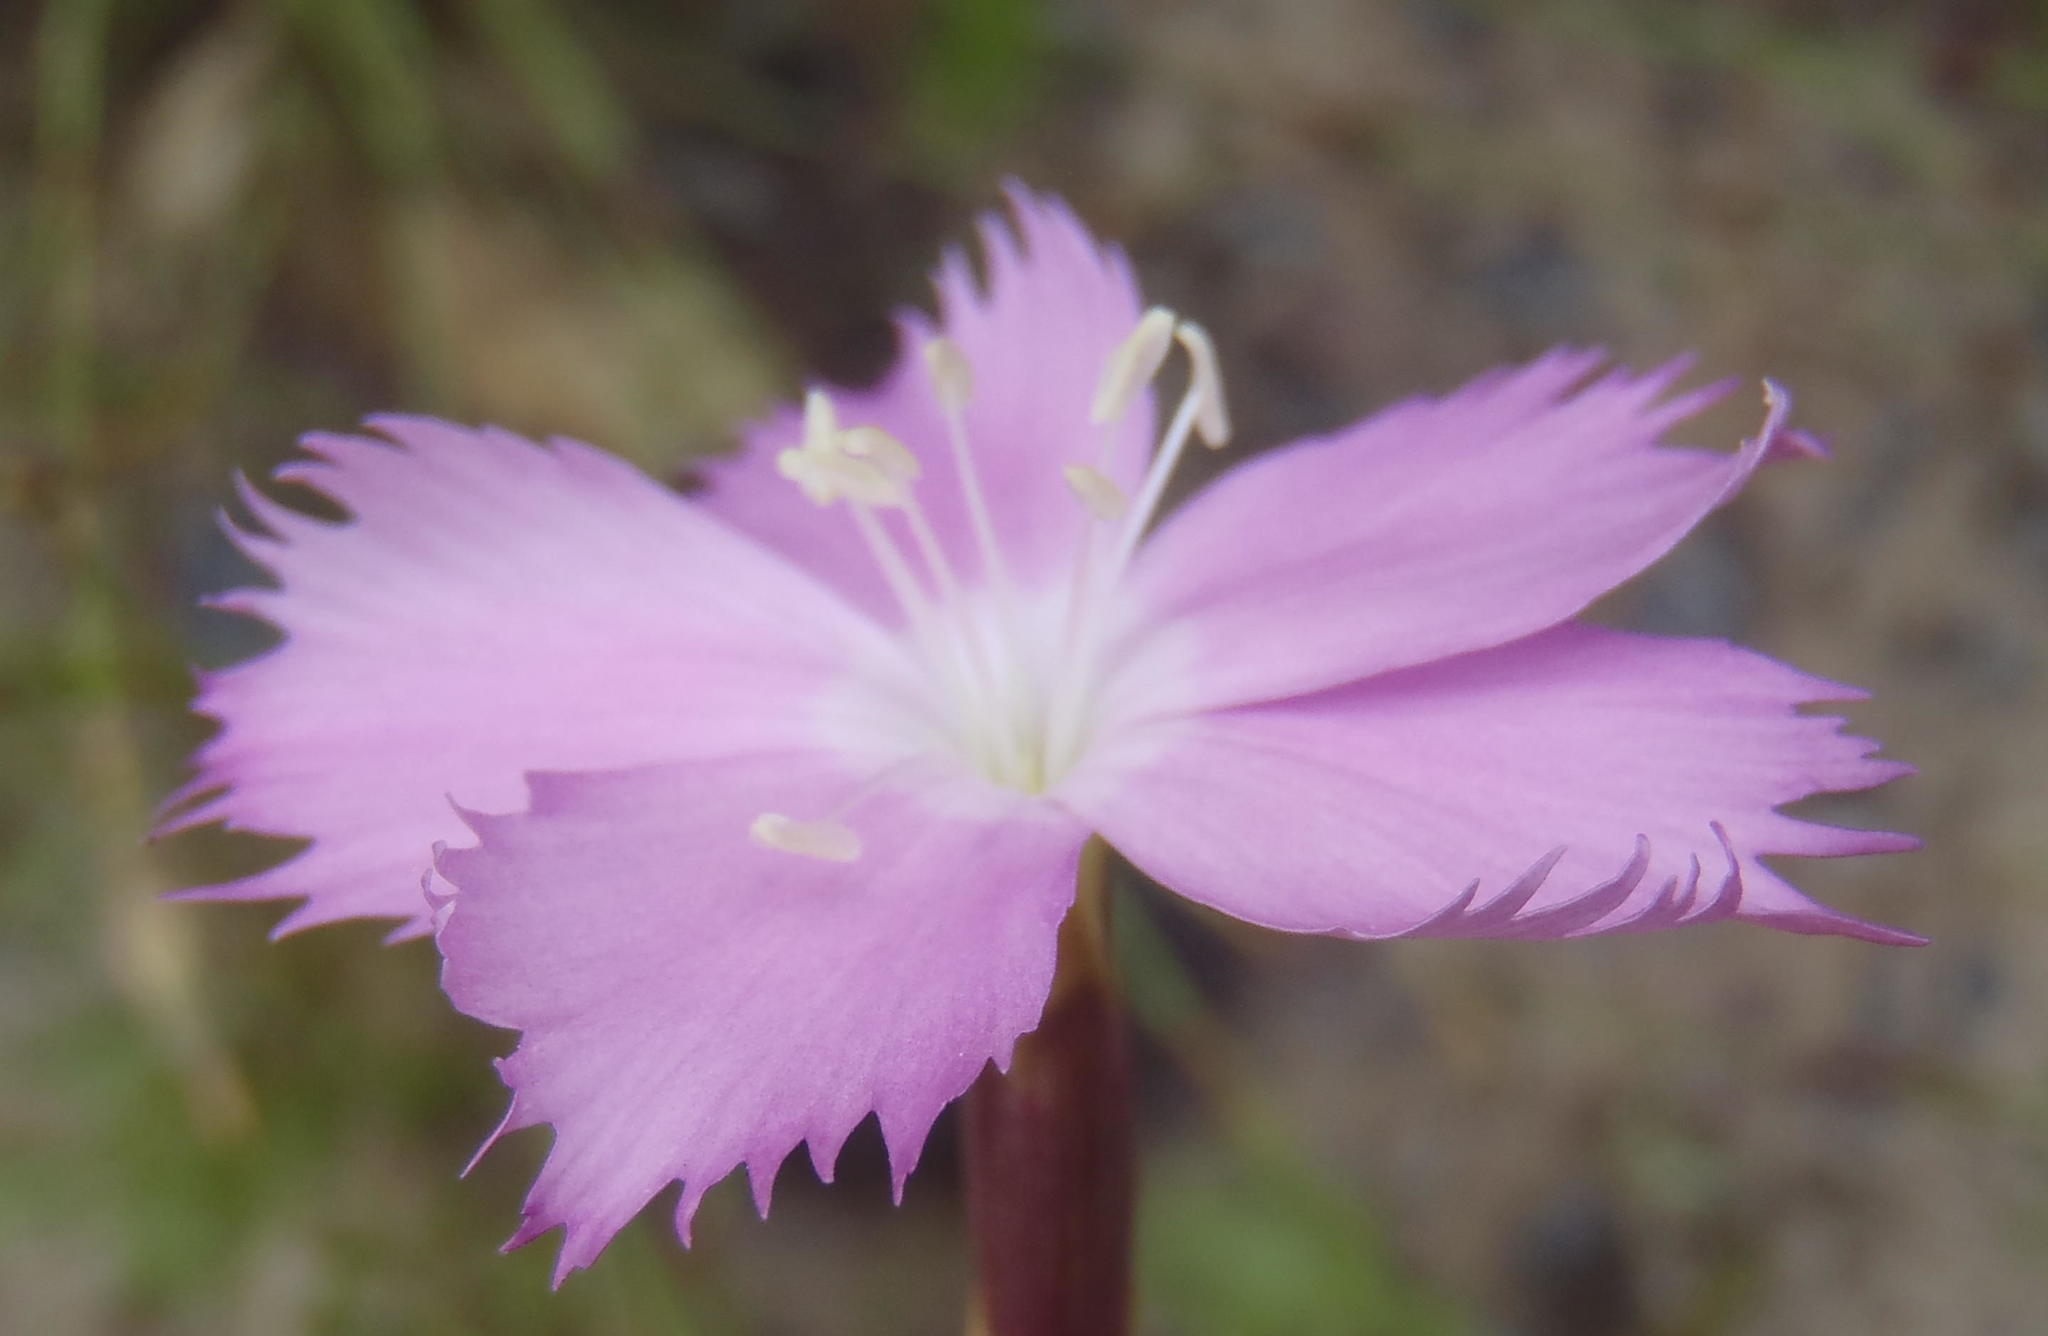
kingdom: Plantae
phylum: Tracheophyta
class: Magnoliopsida
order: Caryophyllales
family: Caryophyllaceae
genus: Dianthus
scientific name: Dianthus thunbergii
